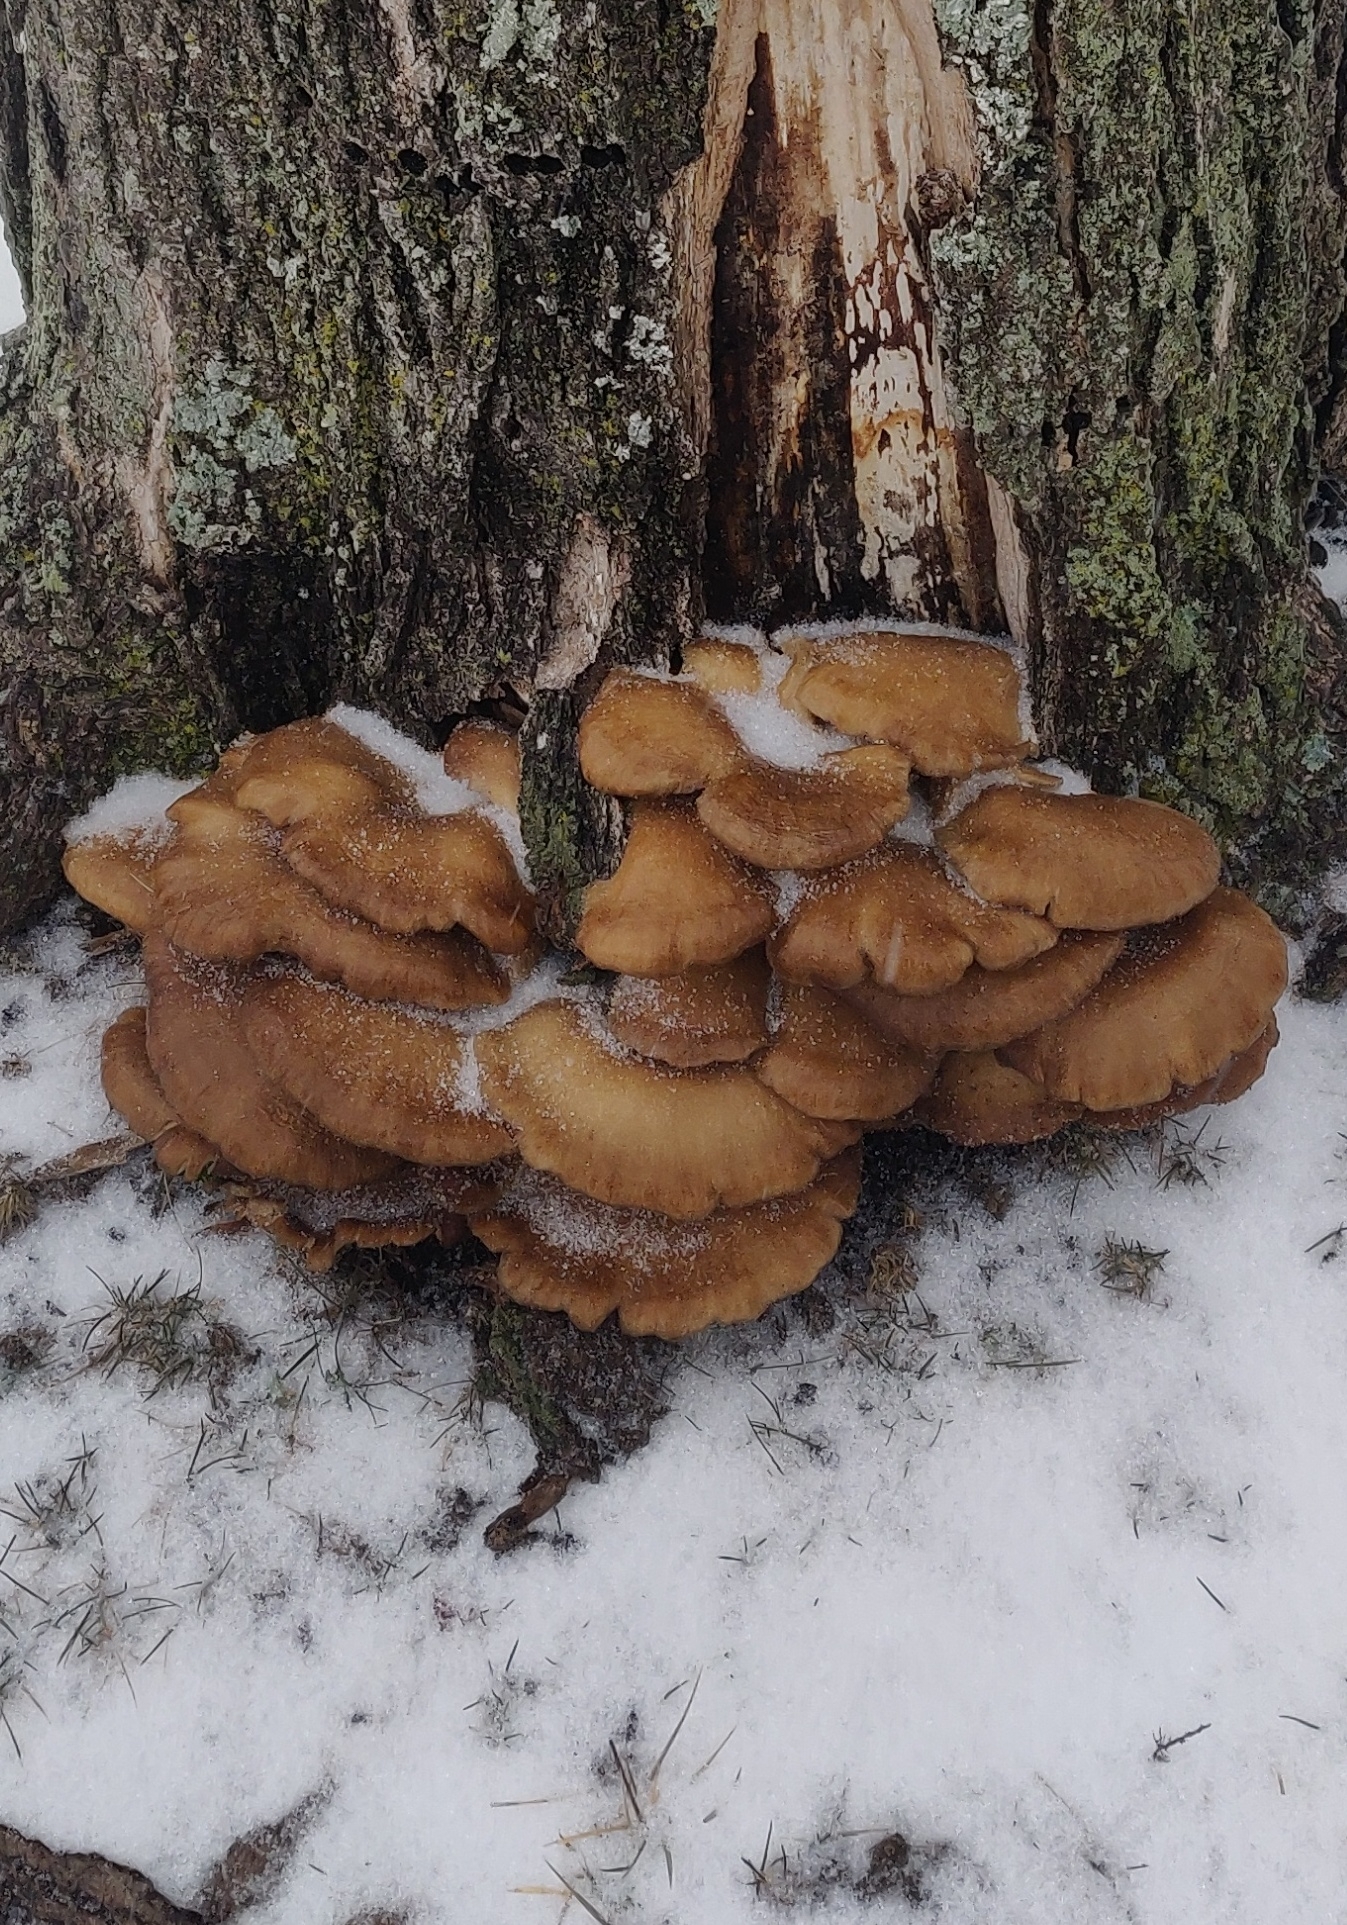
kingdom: Fungi
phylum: Basidiomycota
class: Agaricomycetes
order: Agaricales
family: Pleurotaceae
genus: Pleurotus
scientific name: Pleurotus ostreatus
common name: Oyster mushroom
